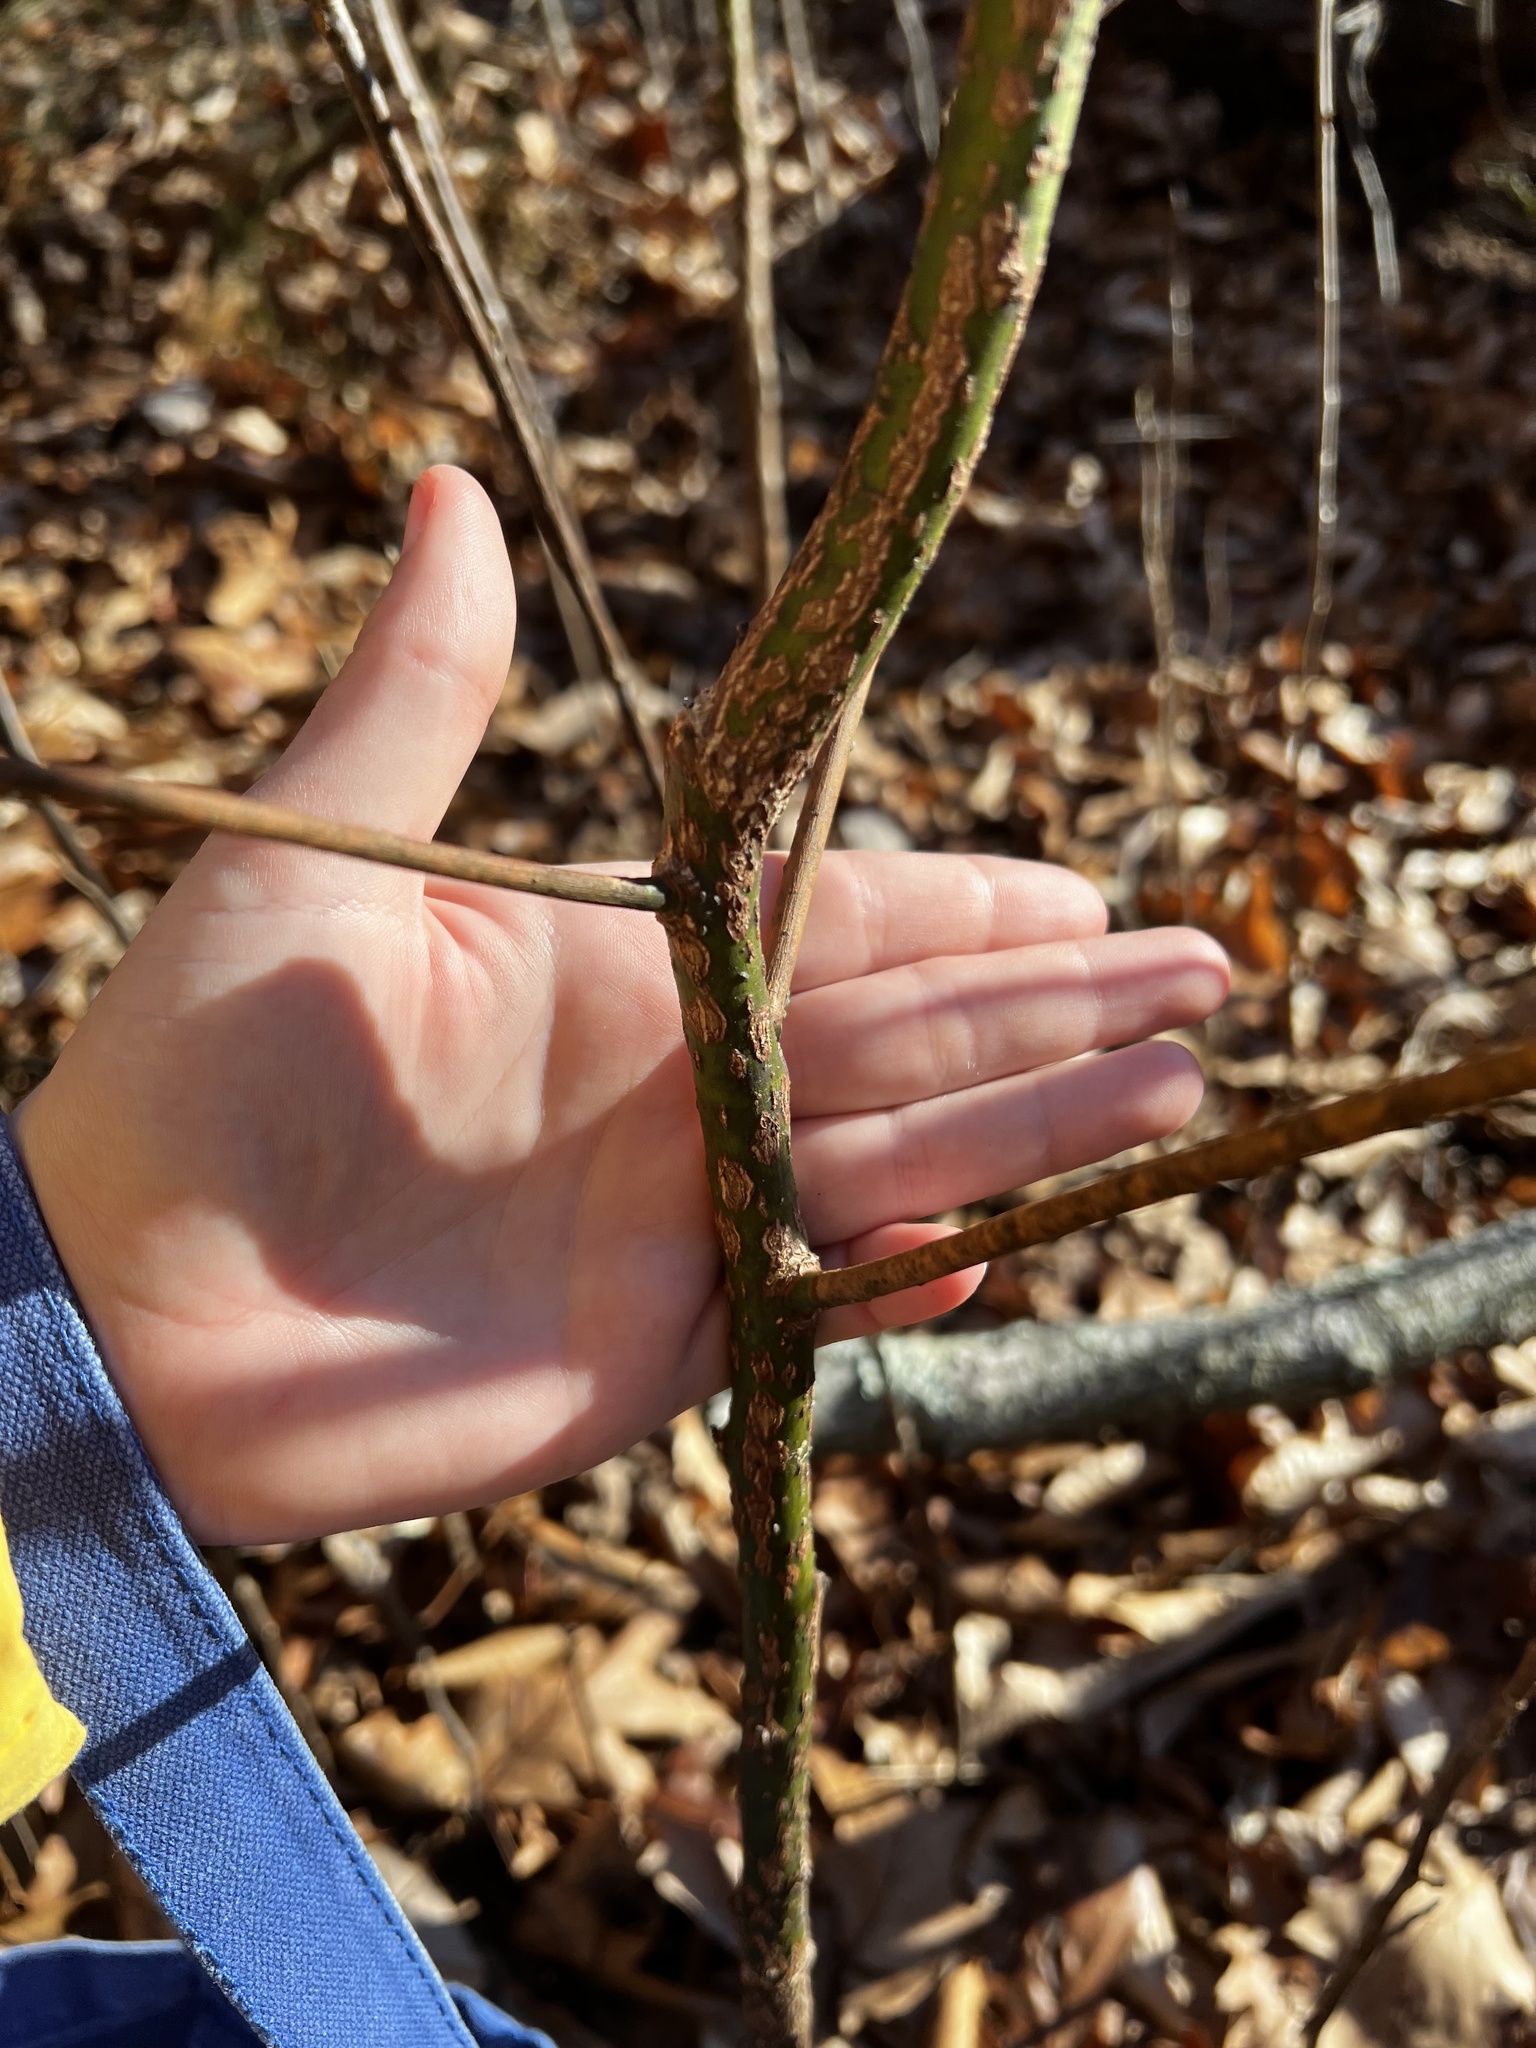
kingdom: Plantae
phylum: Tracheophyta
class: Magnoliopsida
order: Laurales
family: Lauraceae
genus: Sassafras
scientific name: Sassafras albidum
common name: Sassafras
